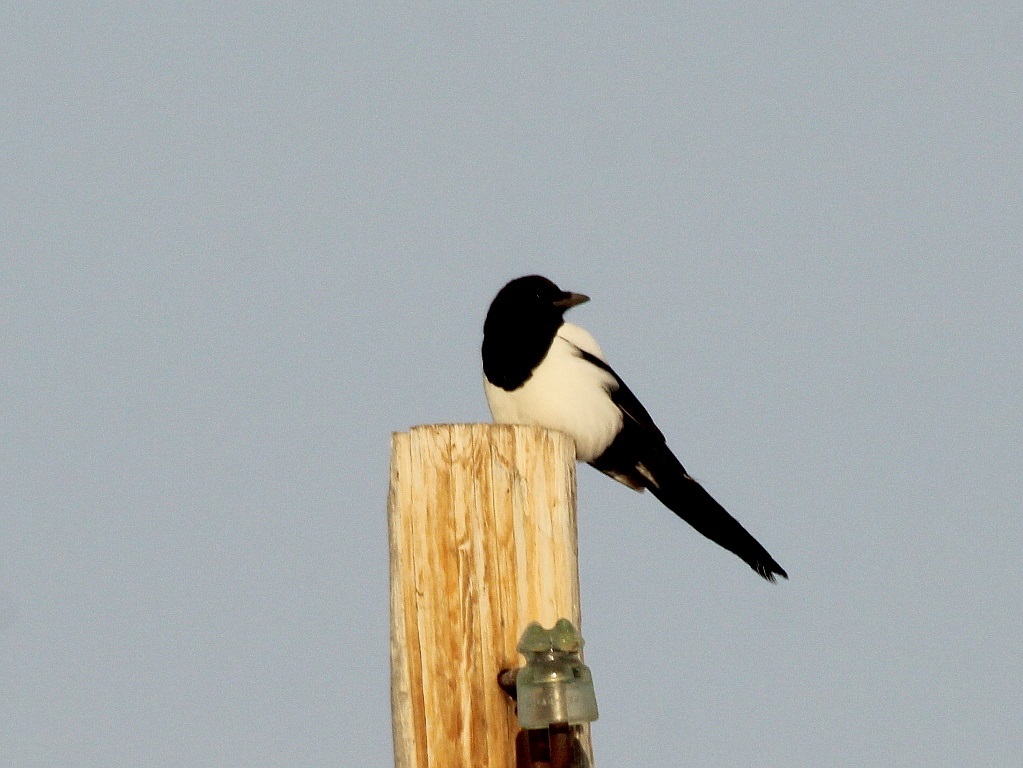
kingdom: Animalia
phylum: Chordata
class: Aves
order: Passeriformes
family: Corvidae
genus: Pica
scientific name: Pica pica
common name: Eurasian magpie
